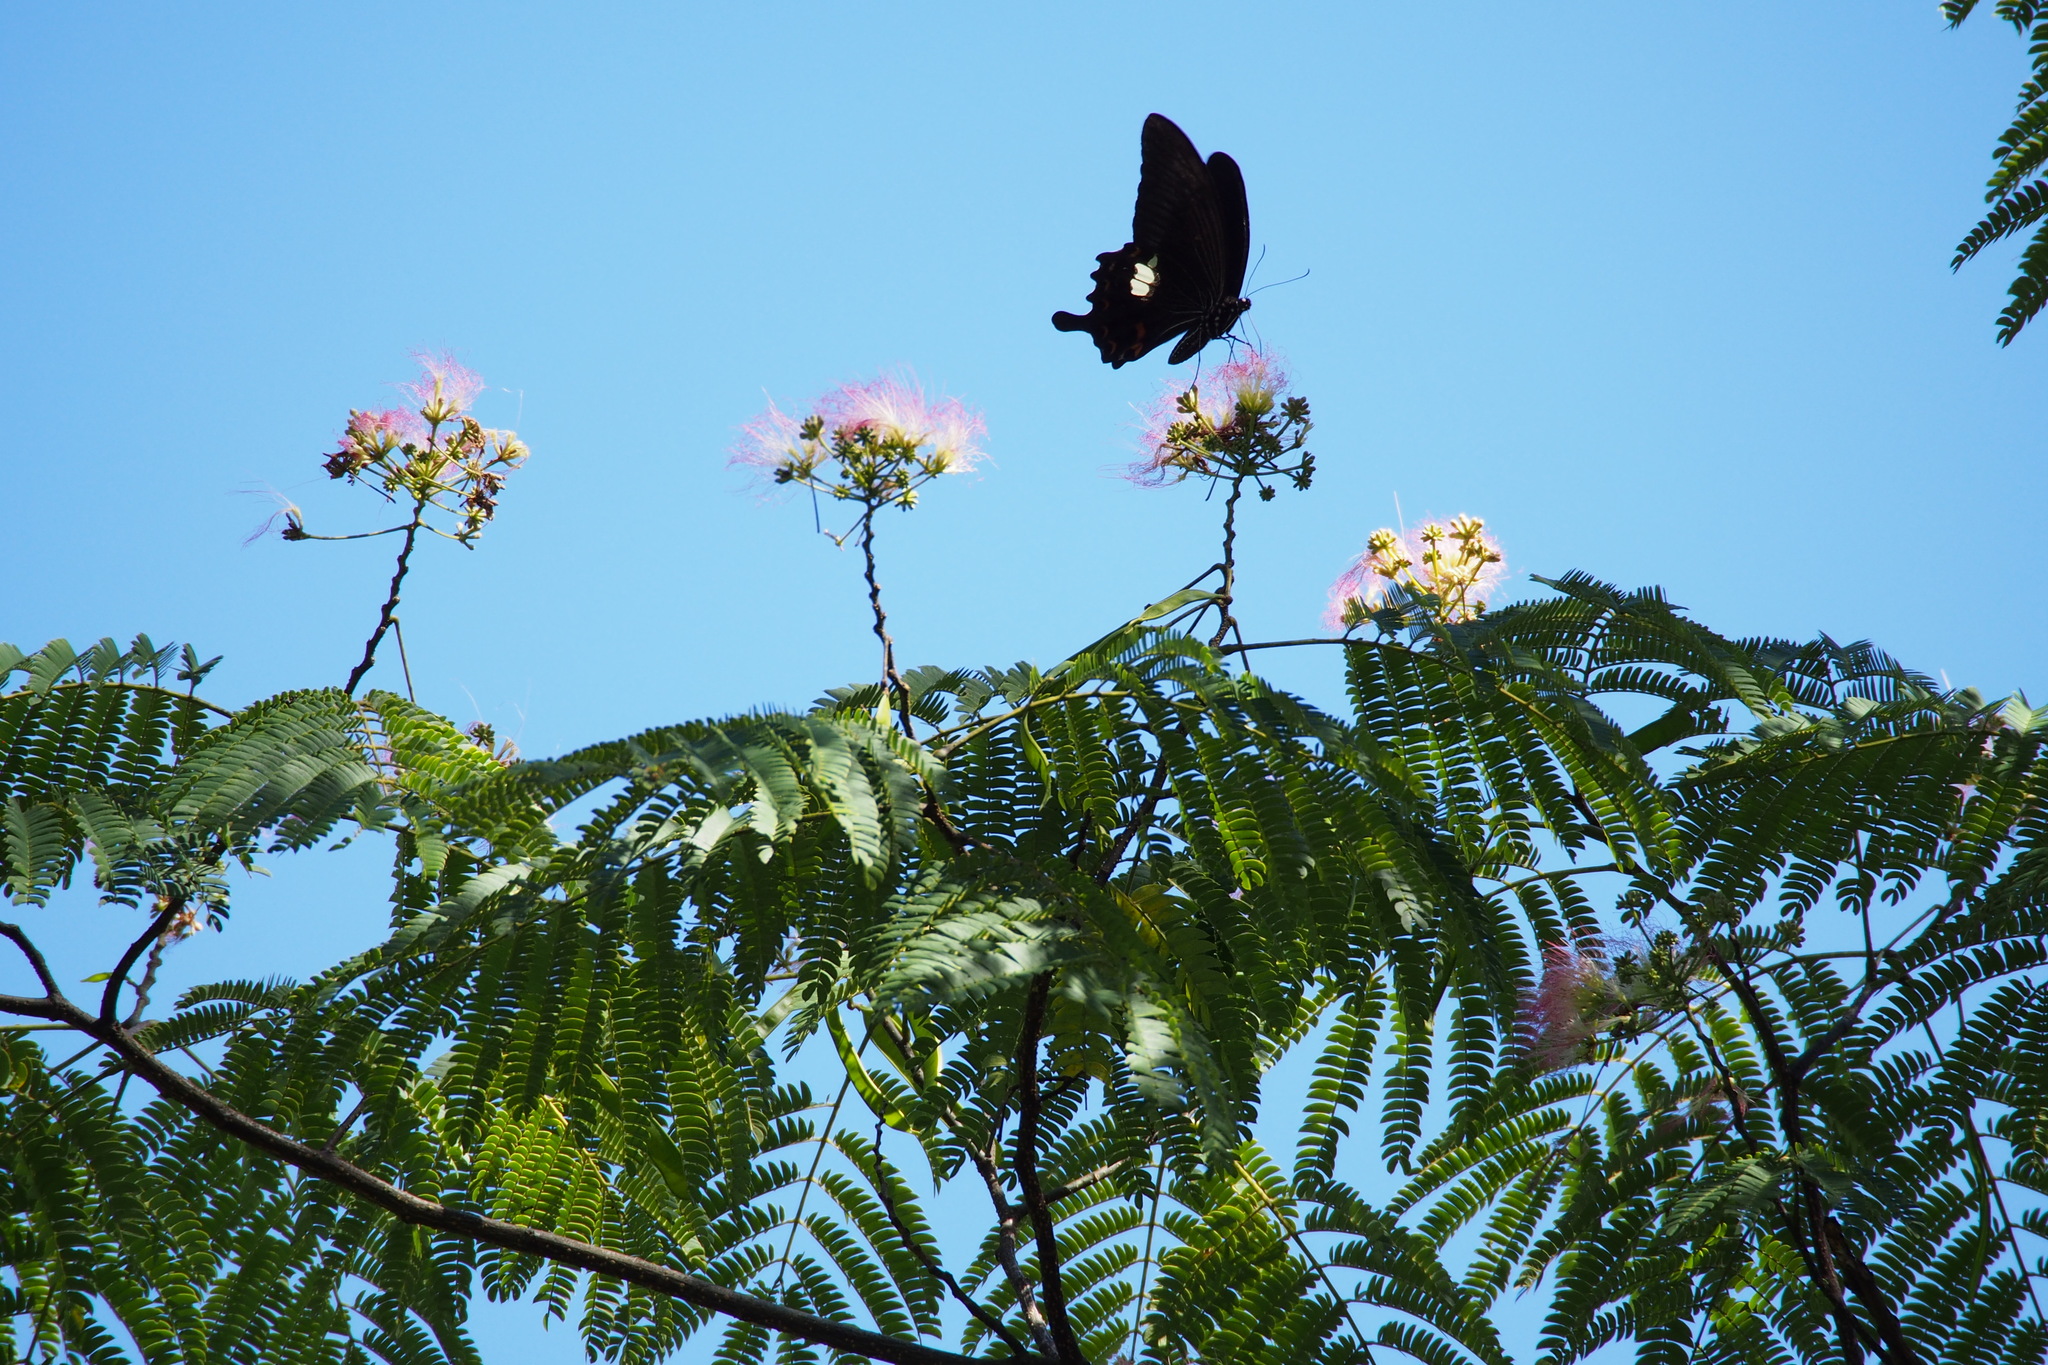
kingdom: Animalia
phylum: Arthropoda
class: Insecta
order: Lepidoptera
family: Papilionidae
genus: Papilio
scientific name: Papilio helenus
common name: Red helen
